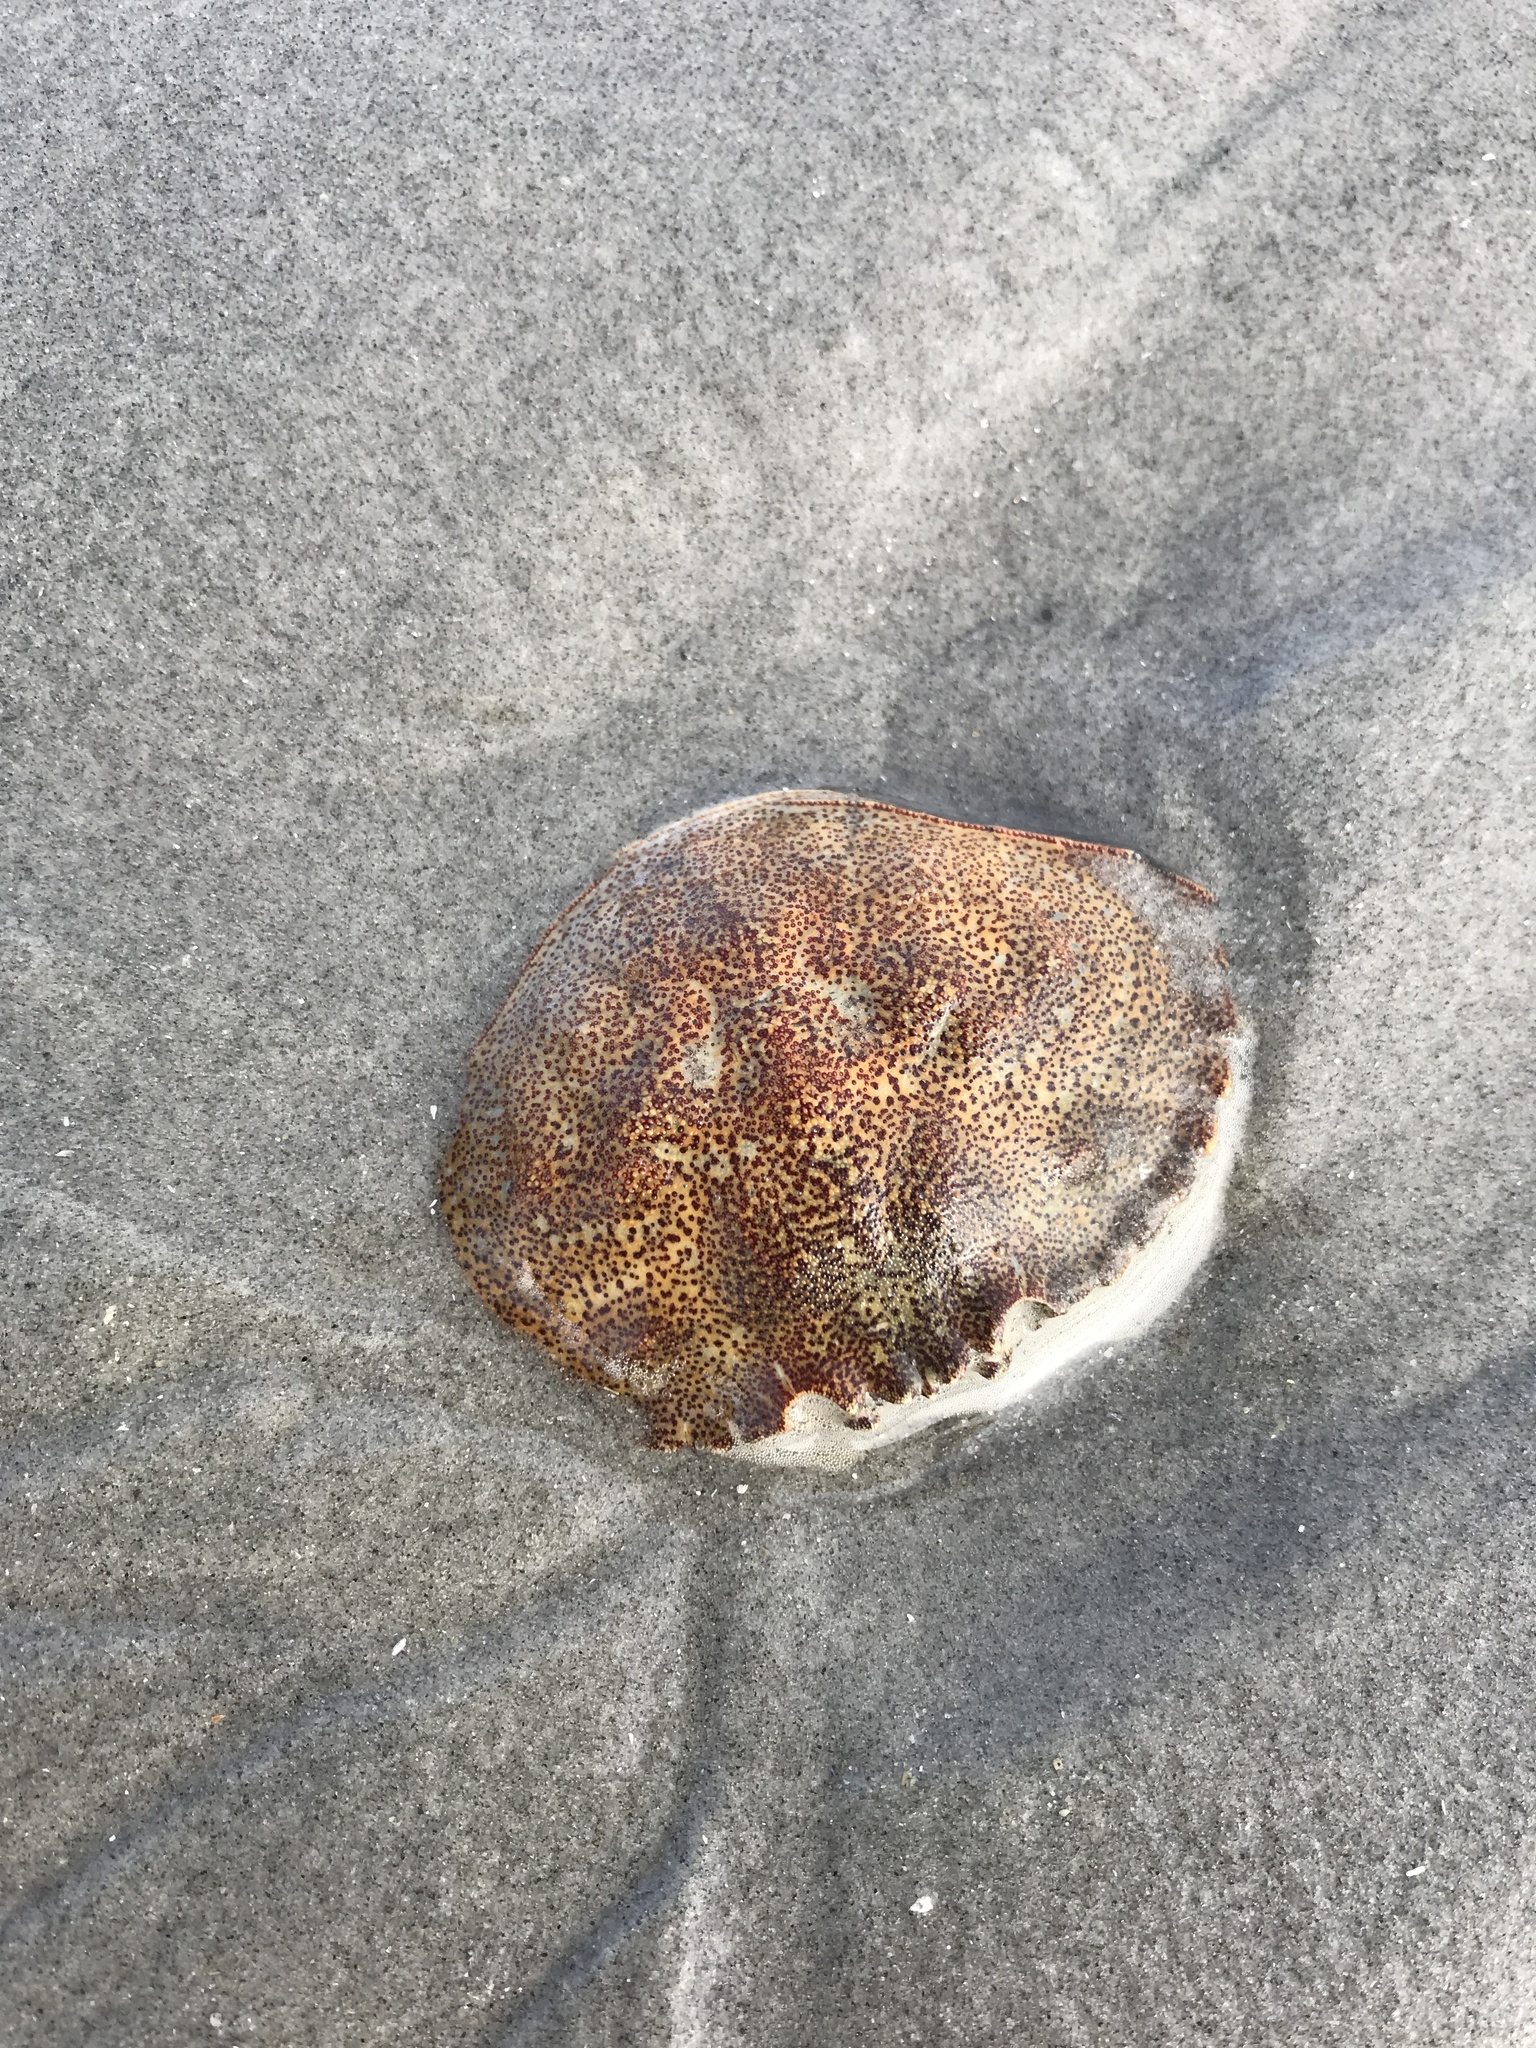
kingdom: Animalia
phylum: Arthropoda
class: Malacostraca
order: Decapoda
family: Cancridae
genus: Cancer
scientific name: Cancer irroratus
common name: Atlantic rock crab
